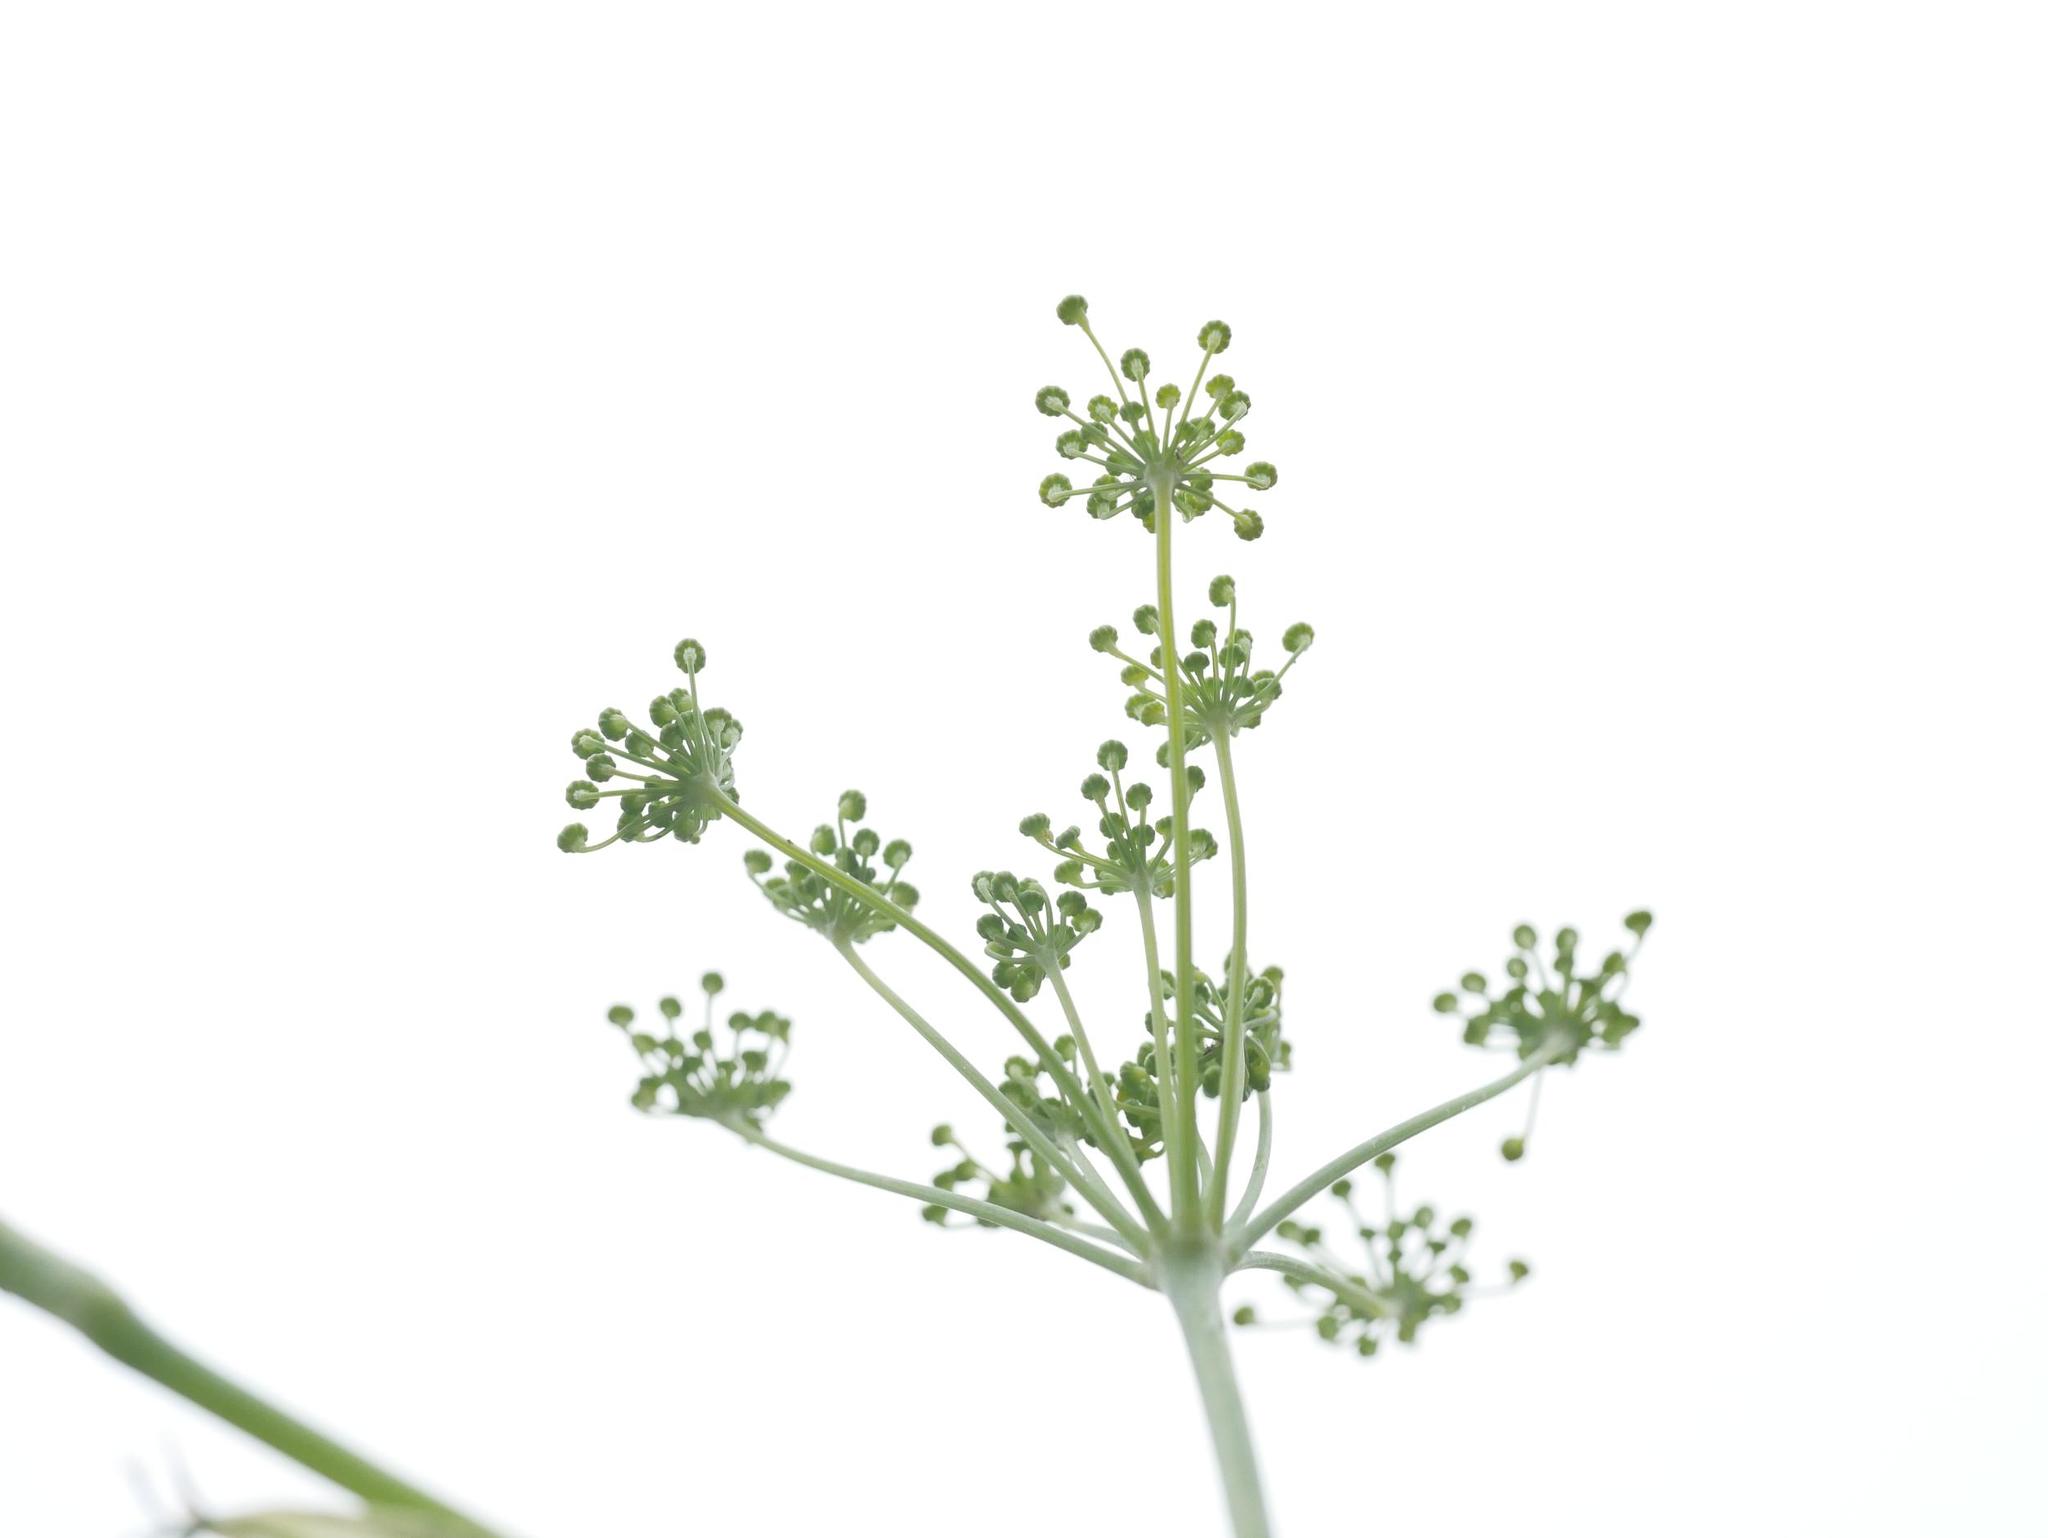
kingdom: Plantae
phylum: Tracheophyta
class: Magnoliopsida
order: Apiales
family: Apiaceae
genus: Foeniculum
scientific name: Foeniculum vulgare
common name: Fennel
